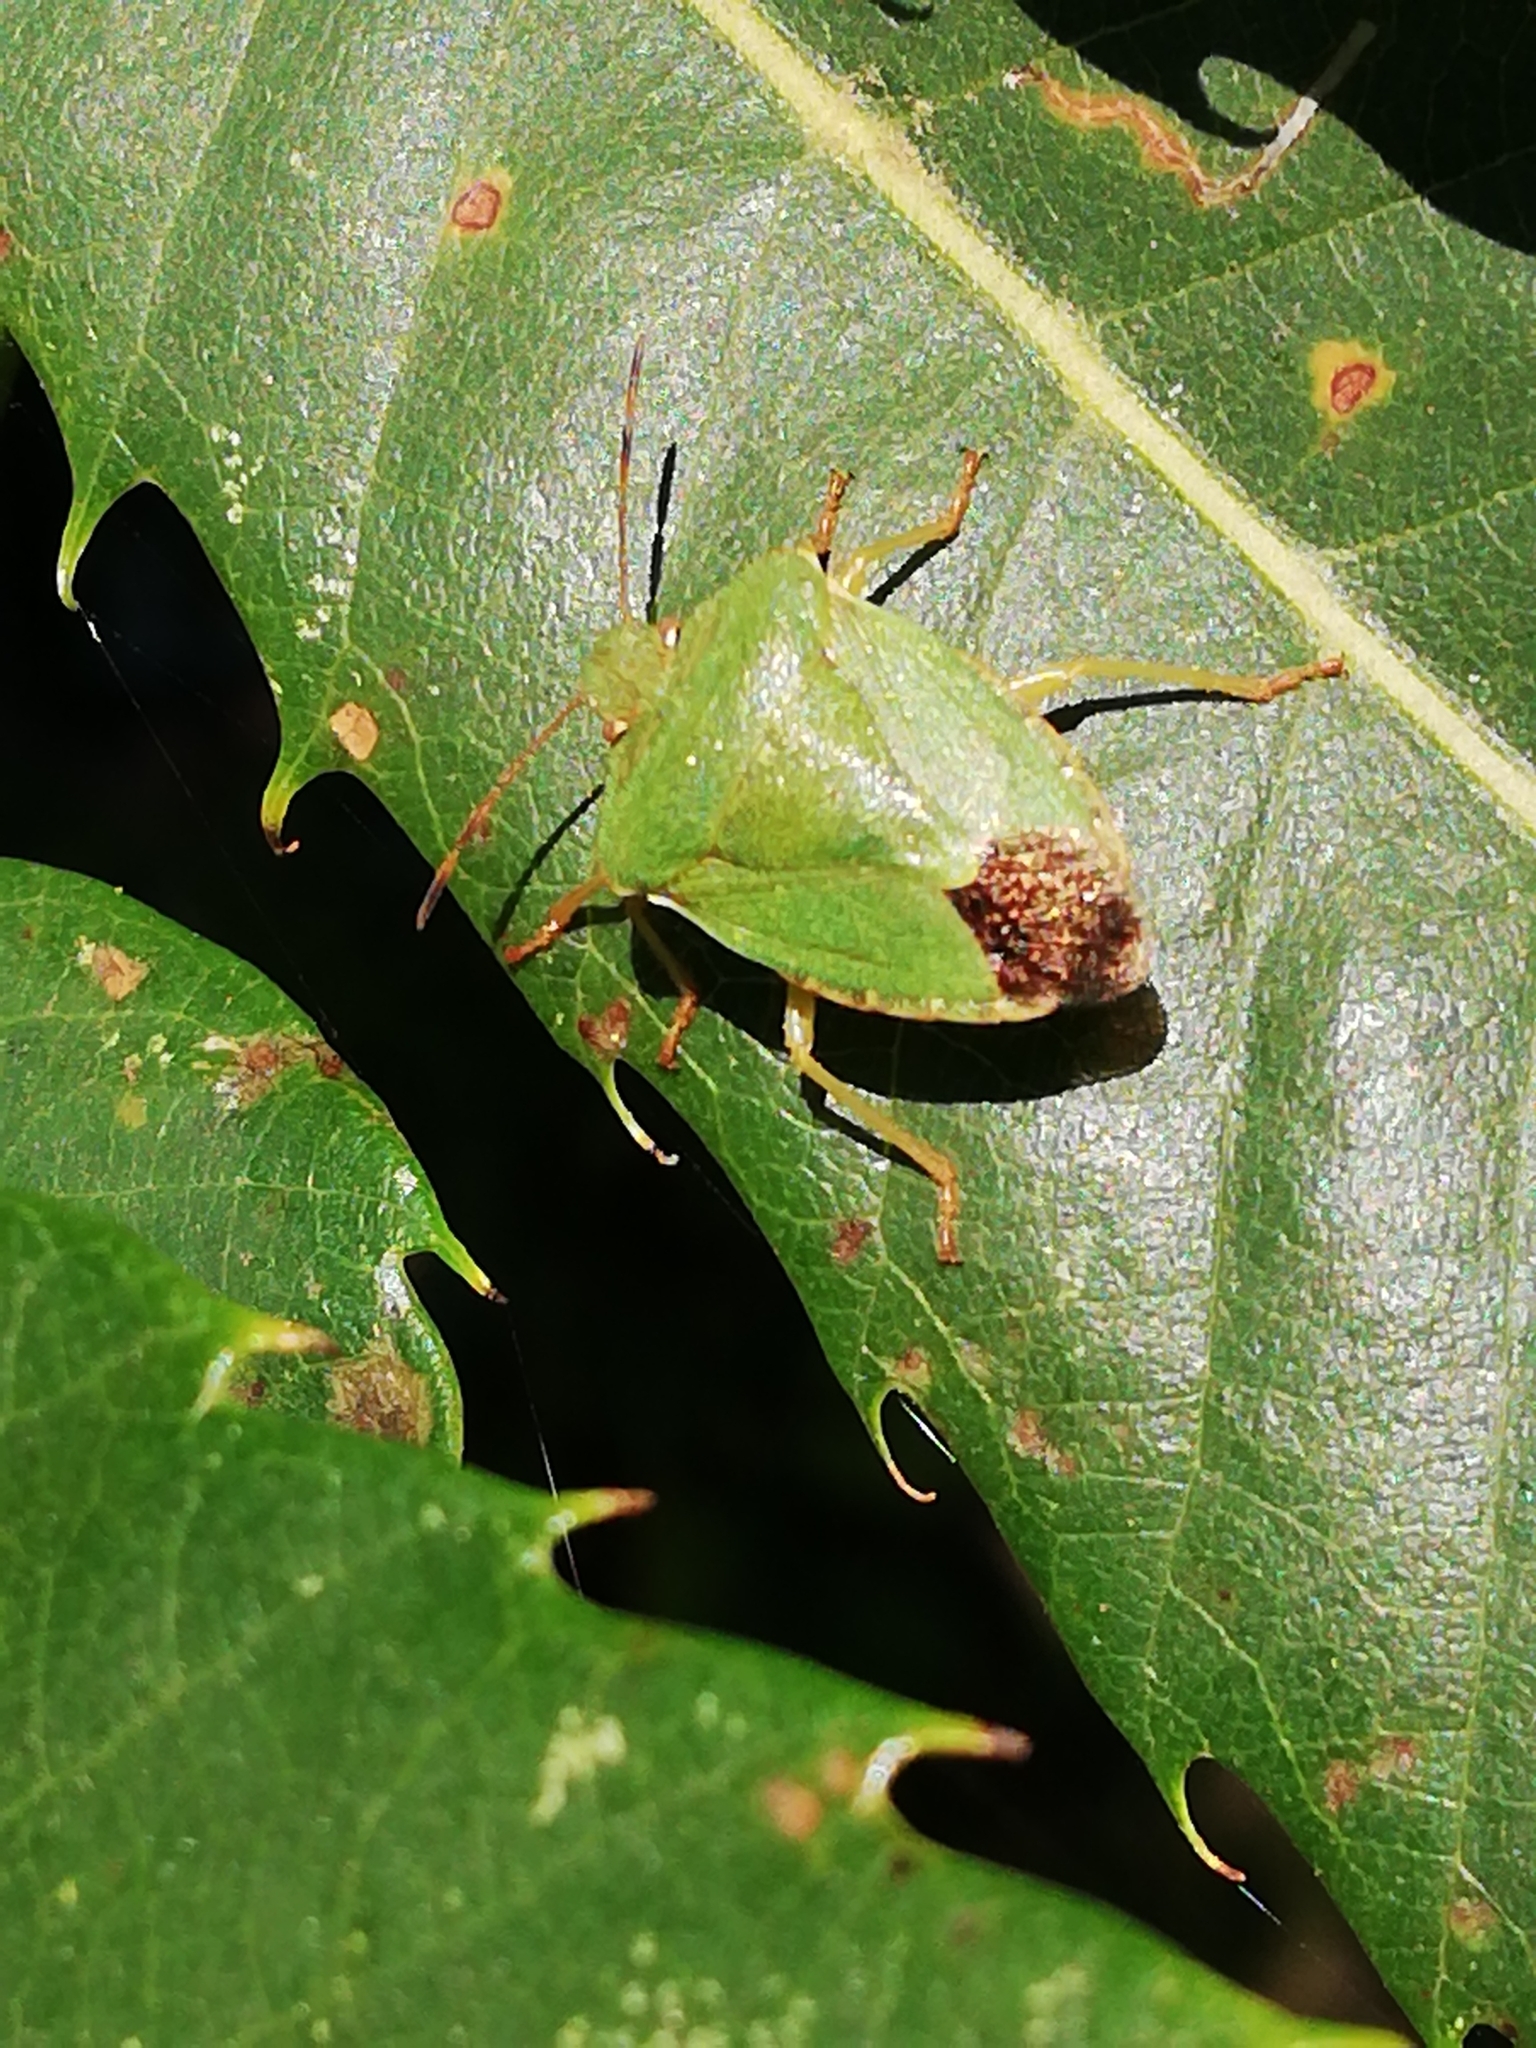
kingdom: Animalia
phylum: Arthropoda
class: Insecta
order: Hemiptera
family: Pentatomidae
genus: Palomena
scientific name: Palomena prasina
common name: Green shieldbug
